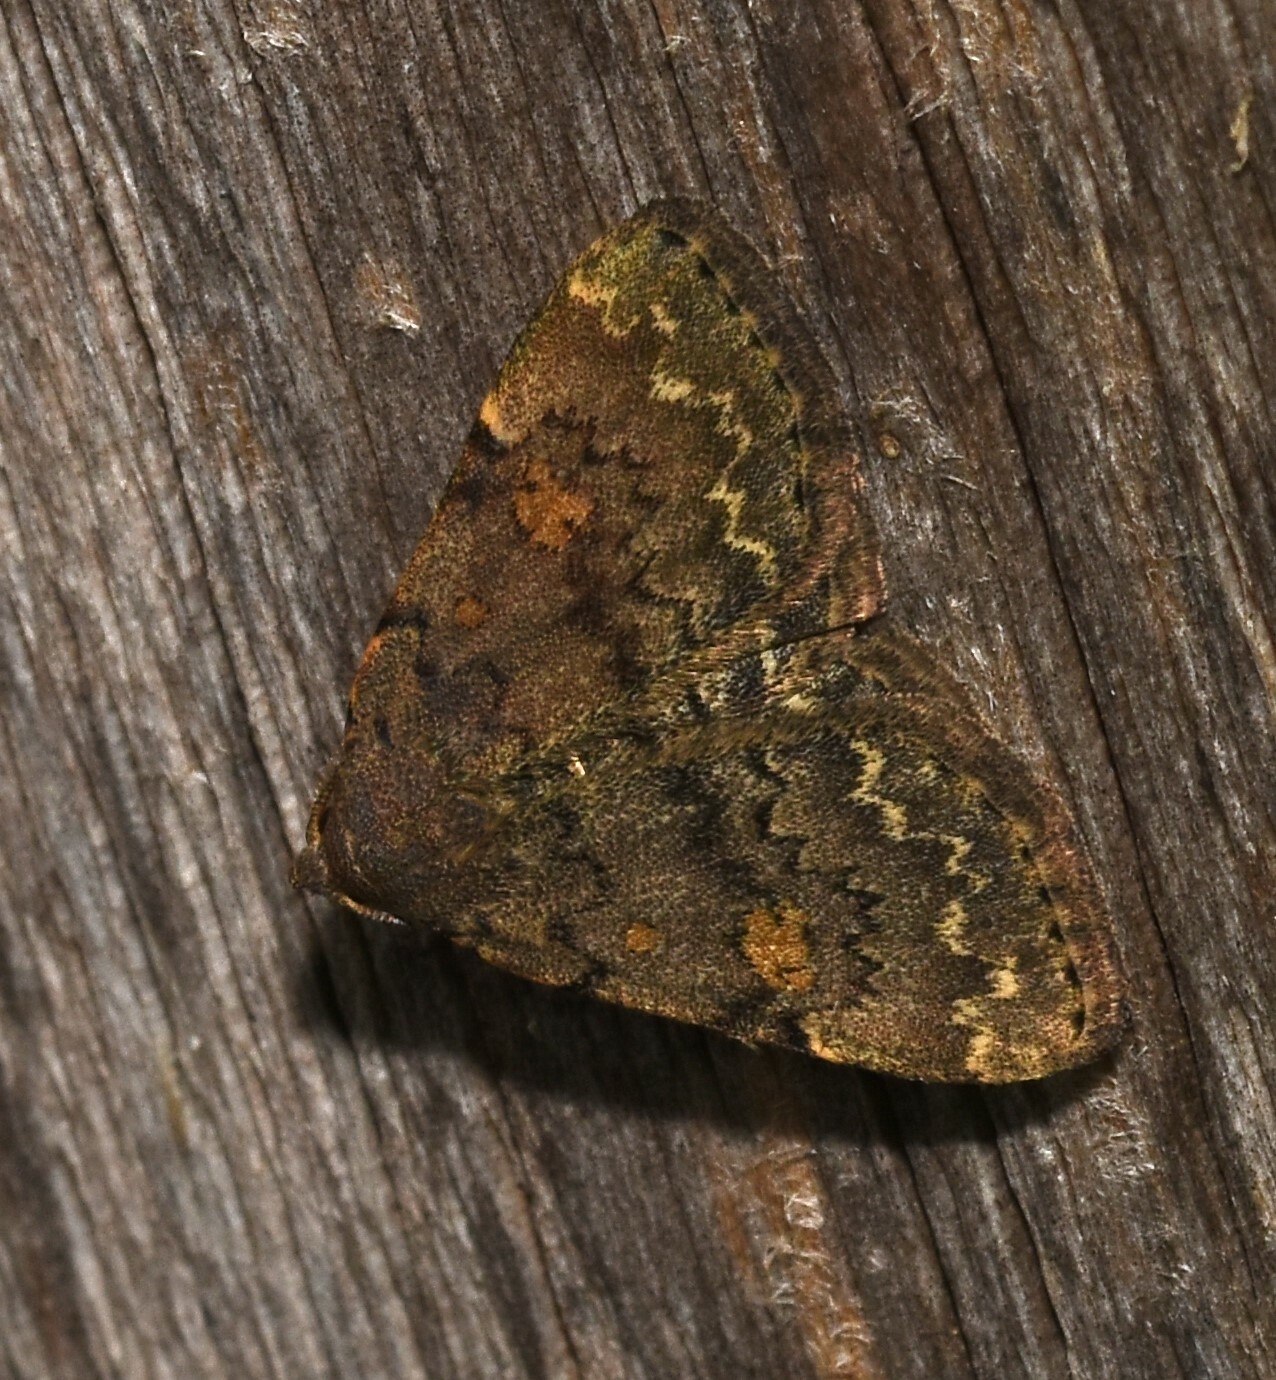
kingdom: Animalia
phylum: Arthropoda
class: Insecta
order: Lepidoptera
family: Erebidae
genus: Idia
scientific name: Idia aemula
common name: Common idia moth
